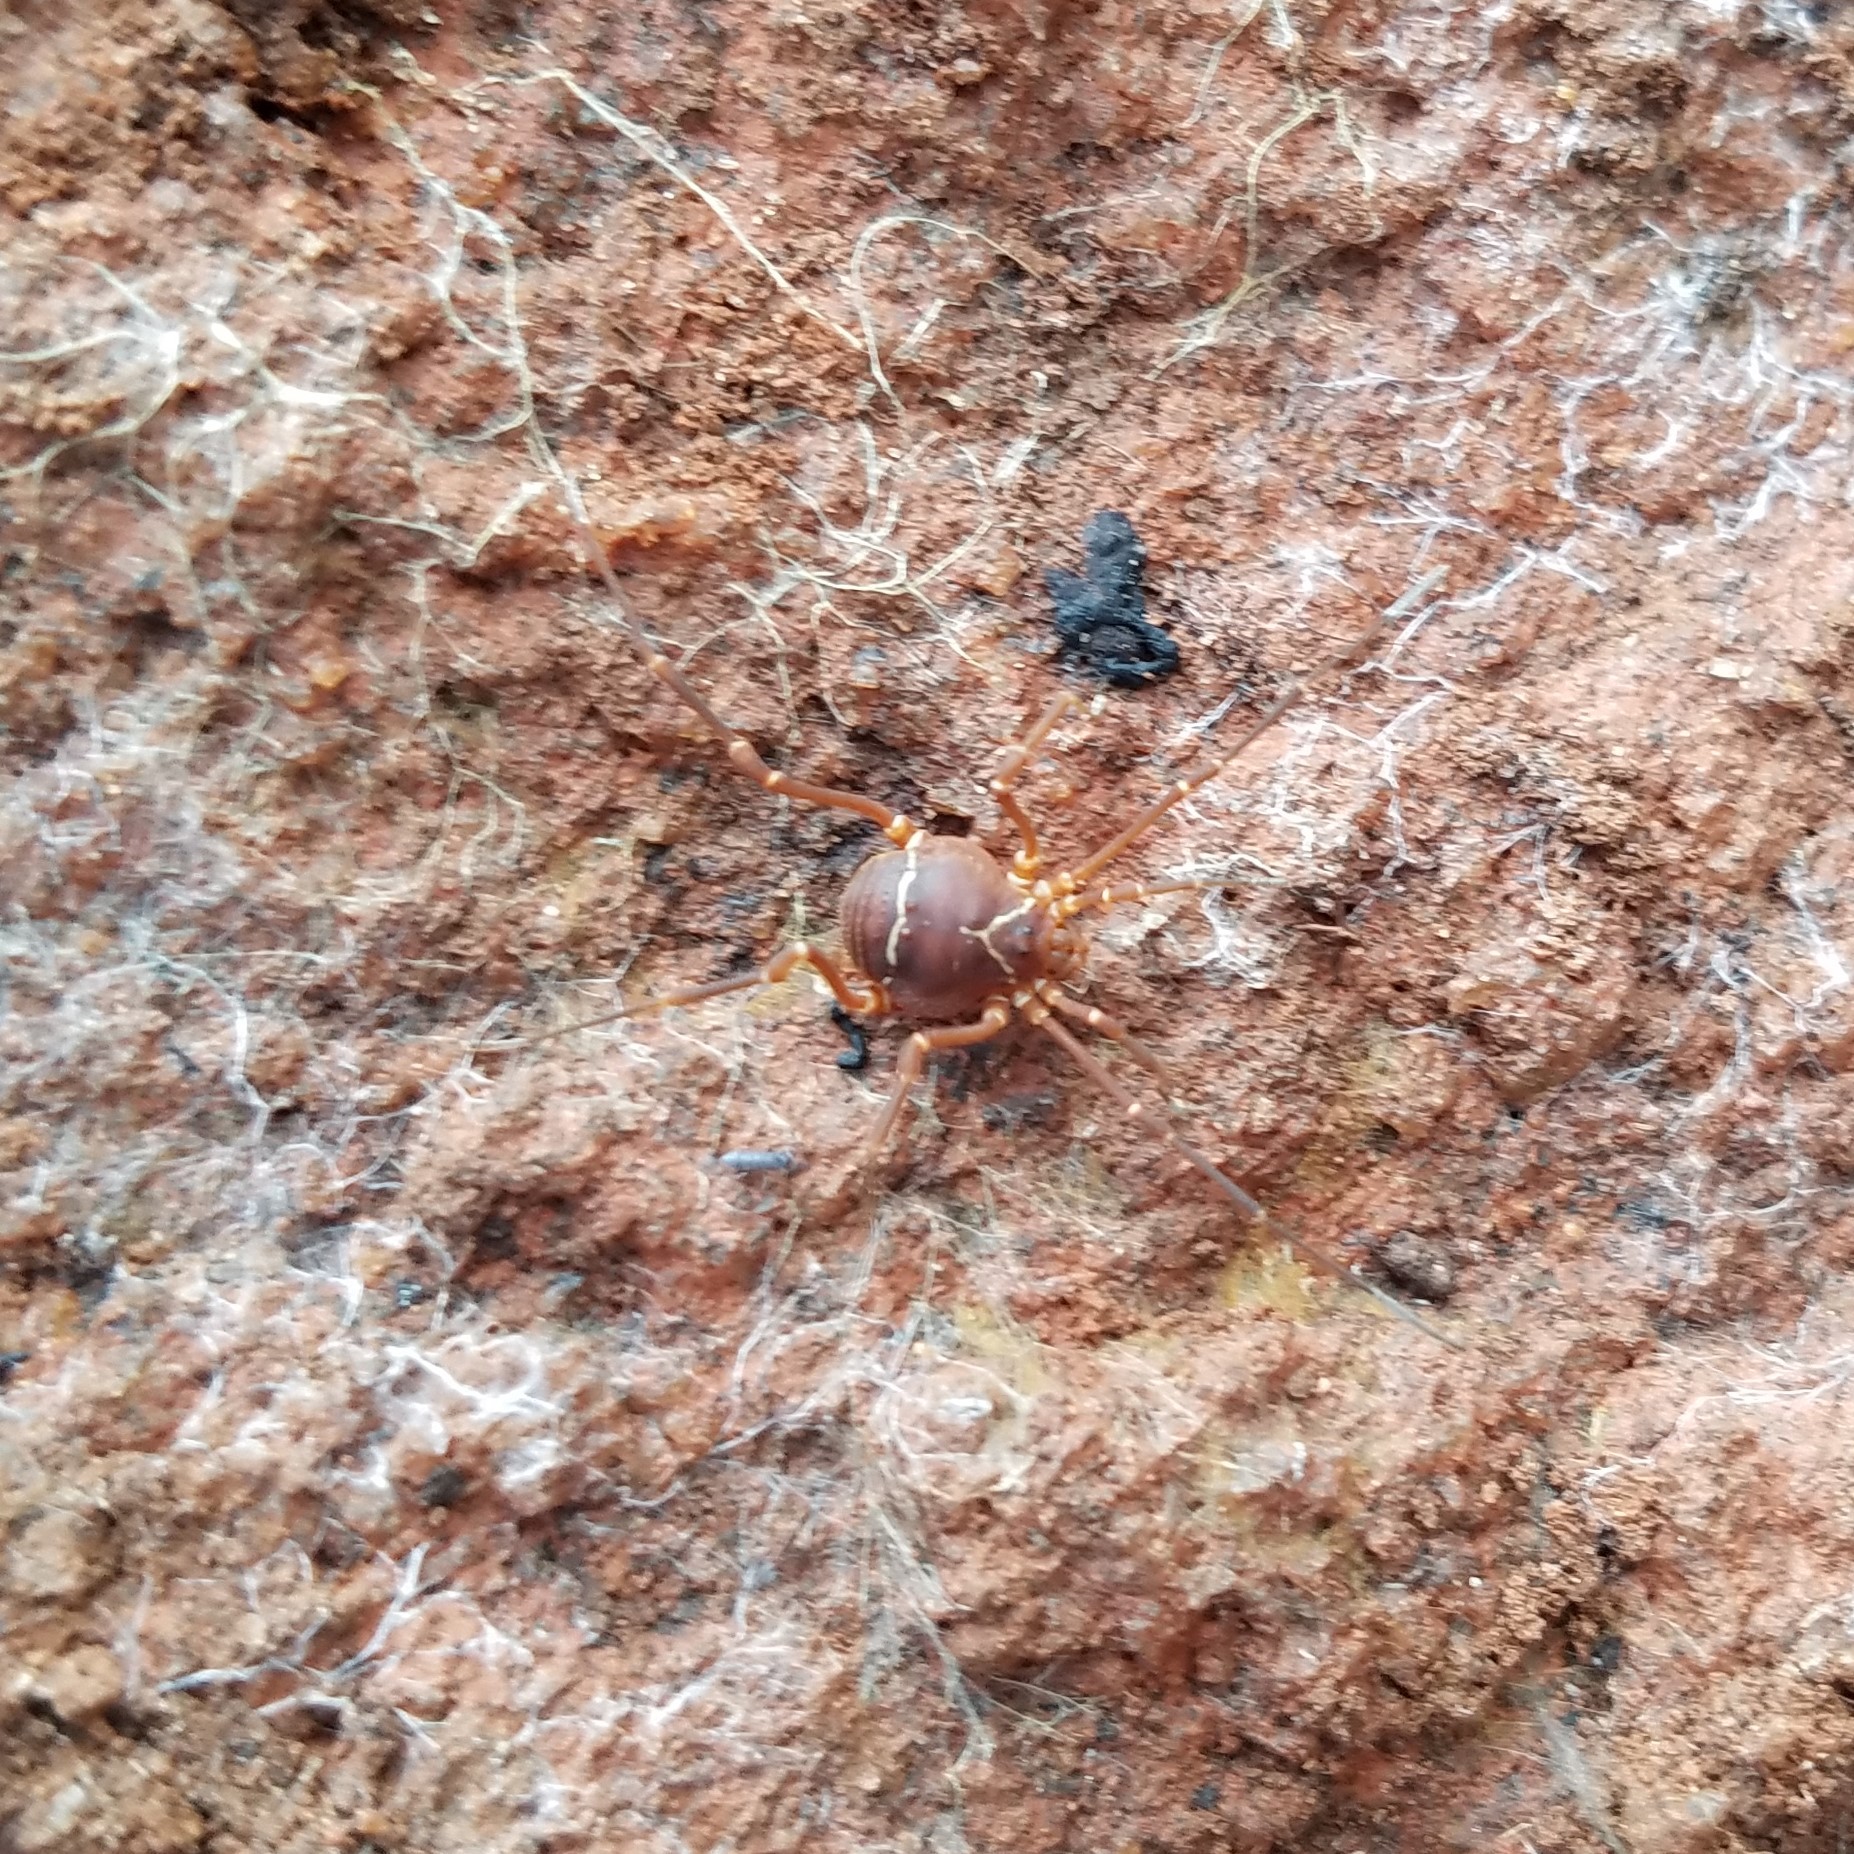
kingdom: Animalia
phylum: Arthropoda
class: Arachnida
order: Opiliones
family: Cosmetidae
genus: Libitioides
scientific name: Libitioides sayi
